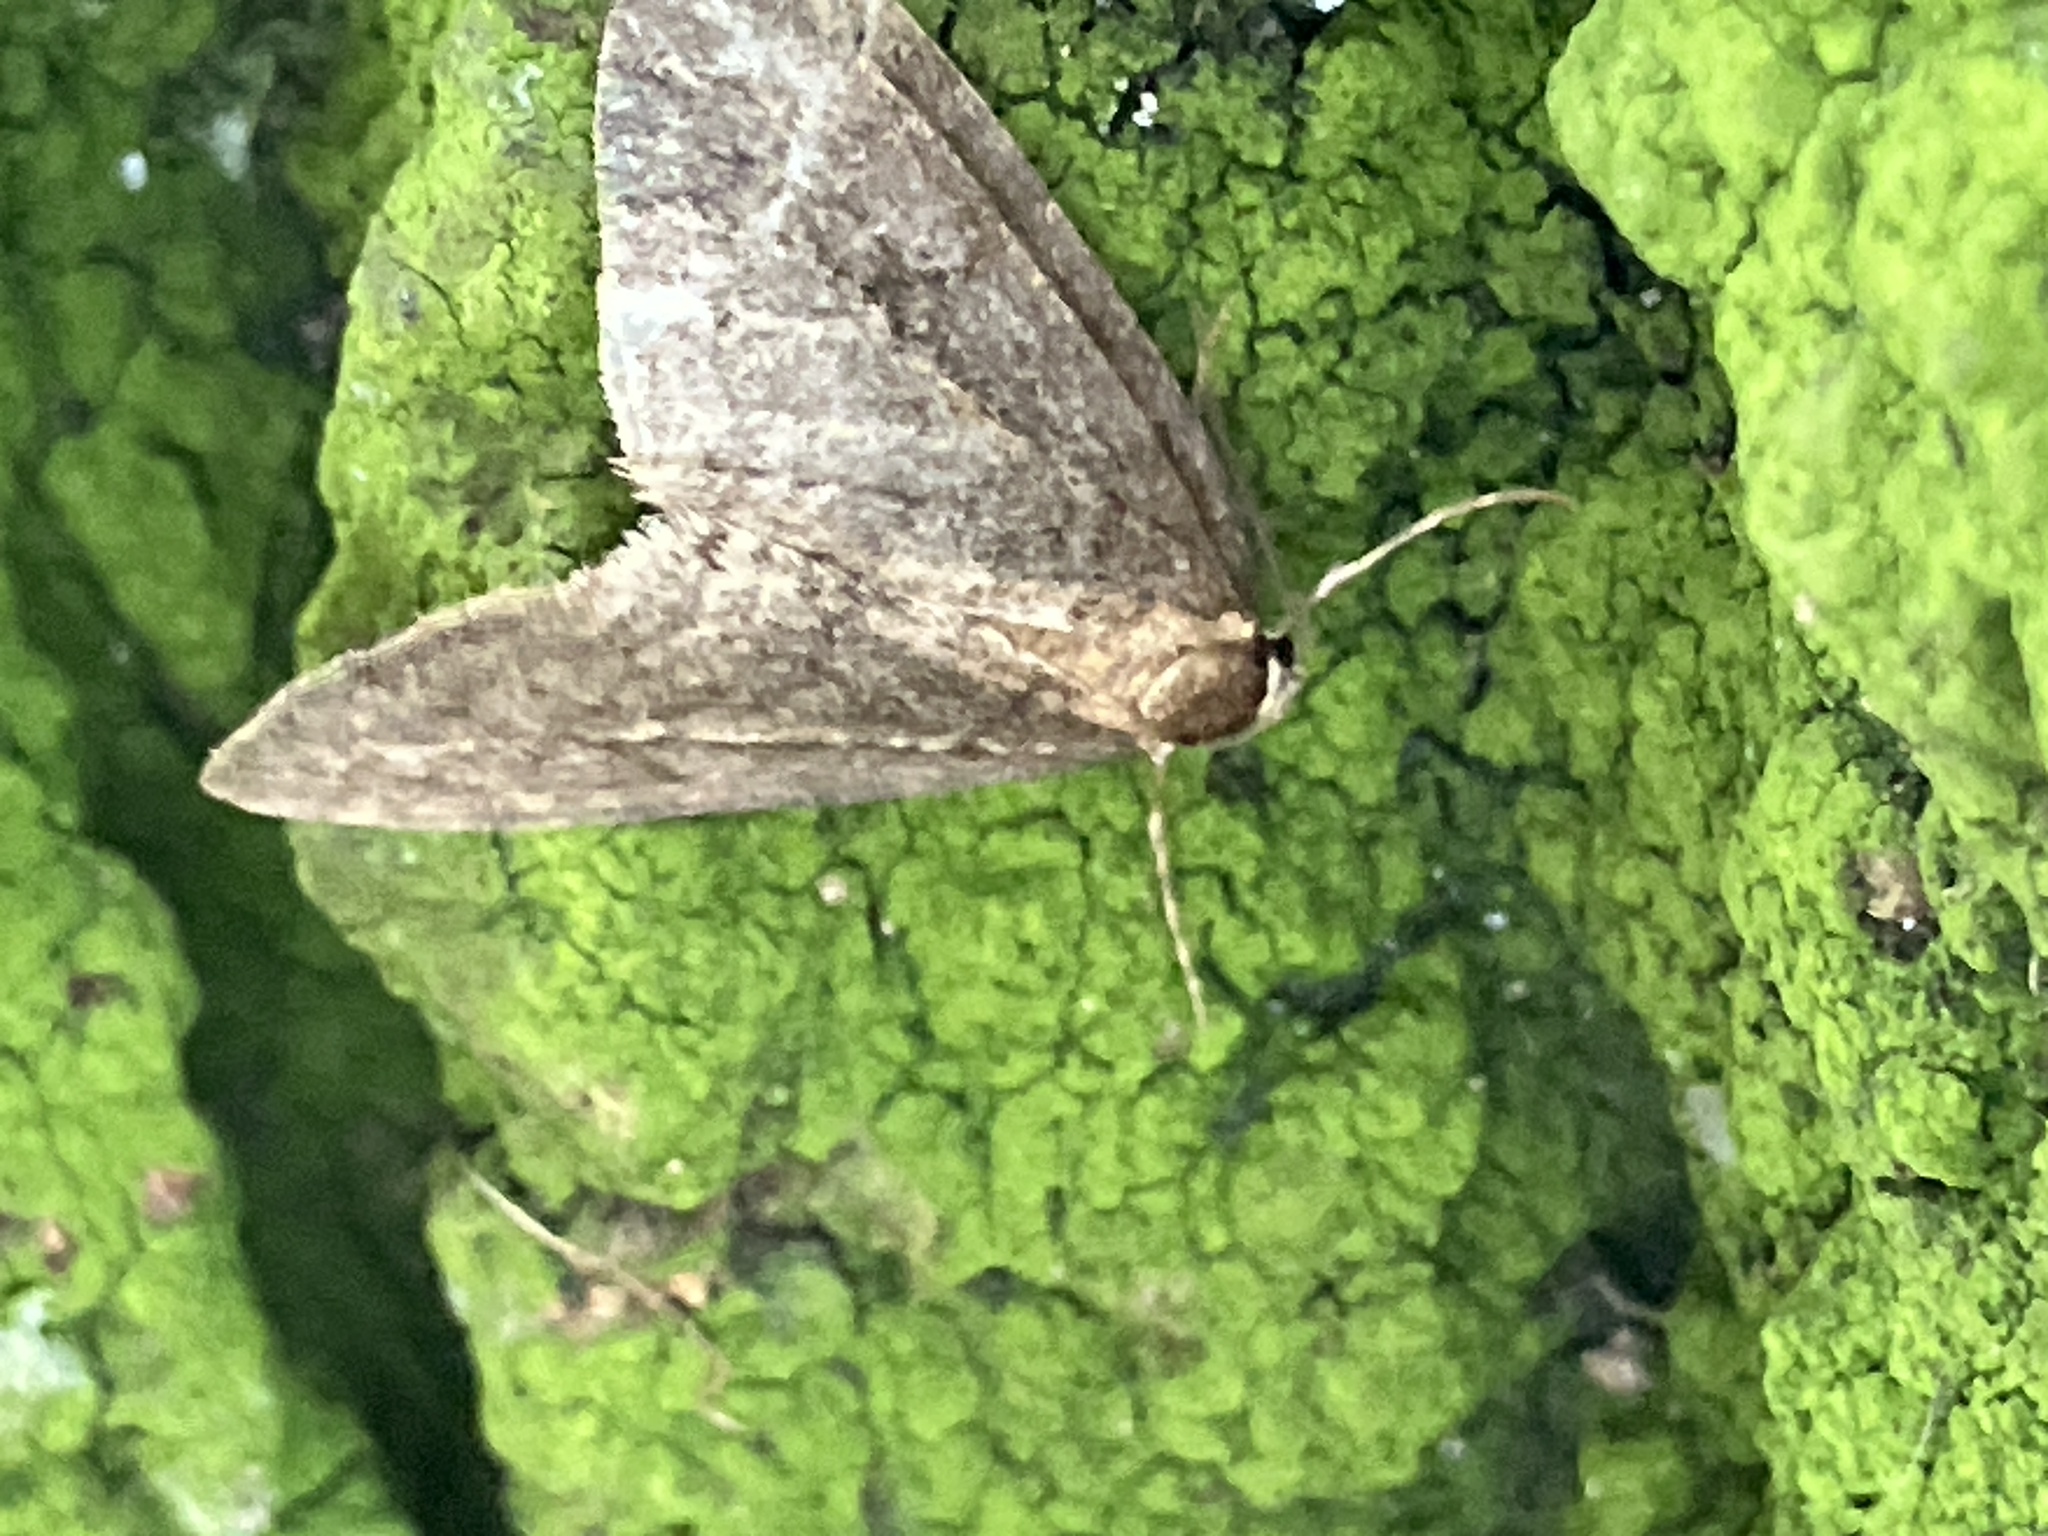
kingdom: Animalia
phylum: Arthropoda
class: Insecta
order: Lepidoptera
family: Geometridae
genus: Operophtera
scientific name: Operophtera brumata
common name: Winter moth
